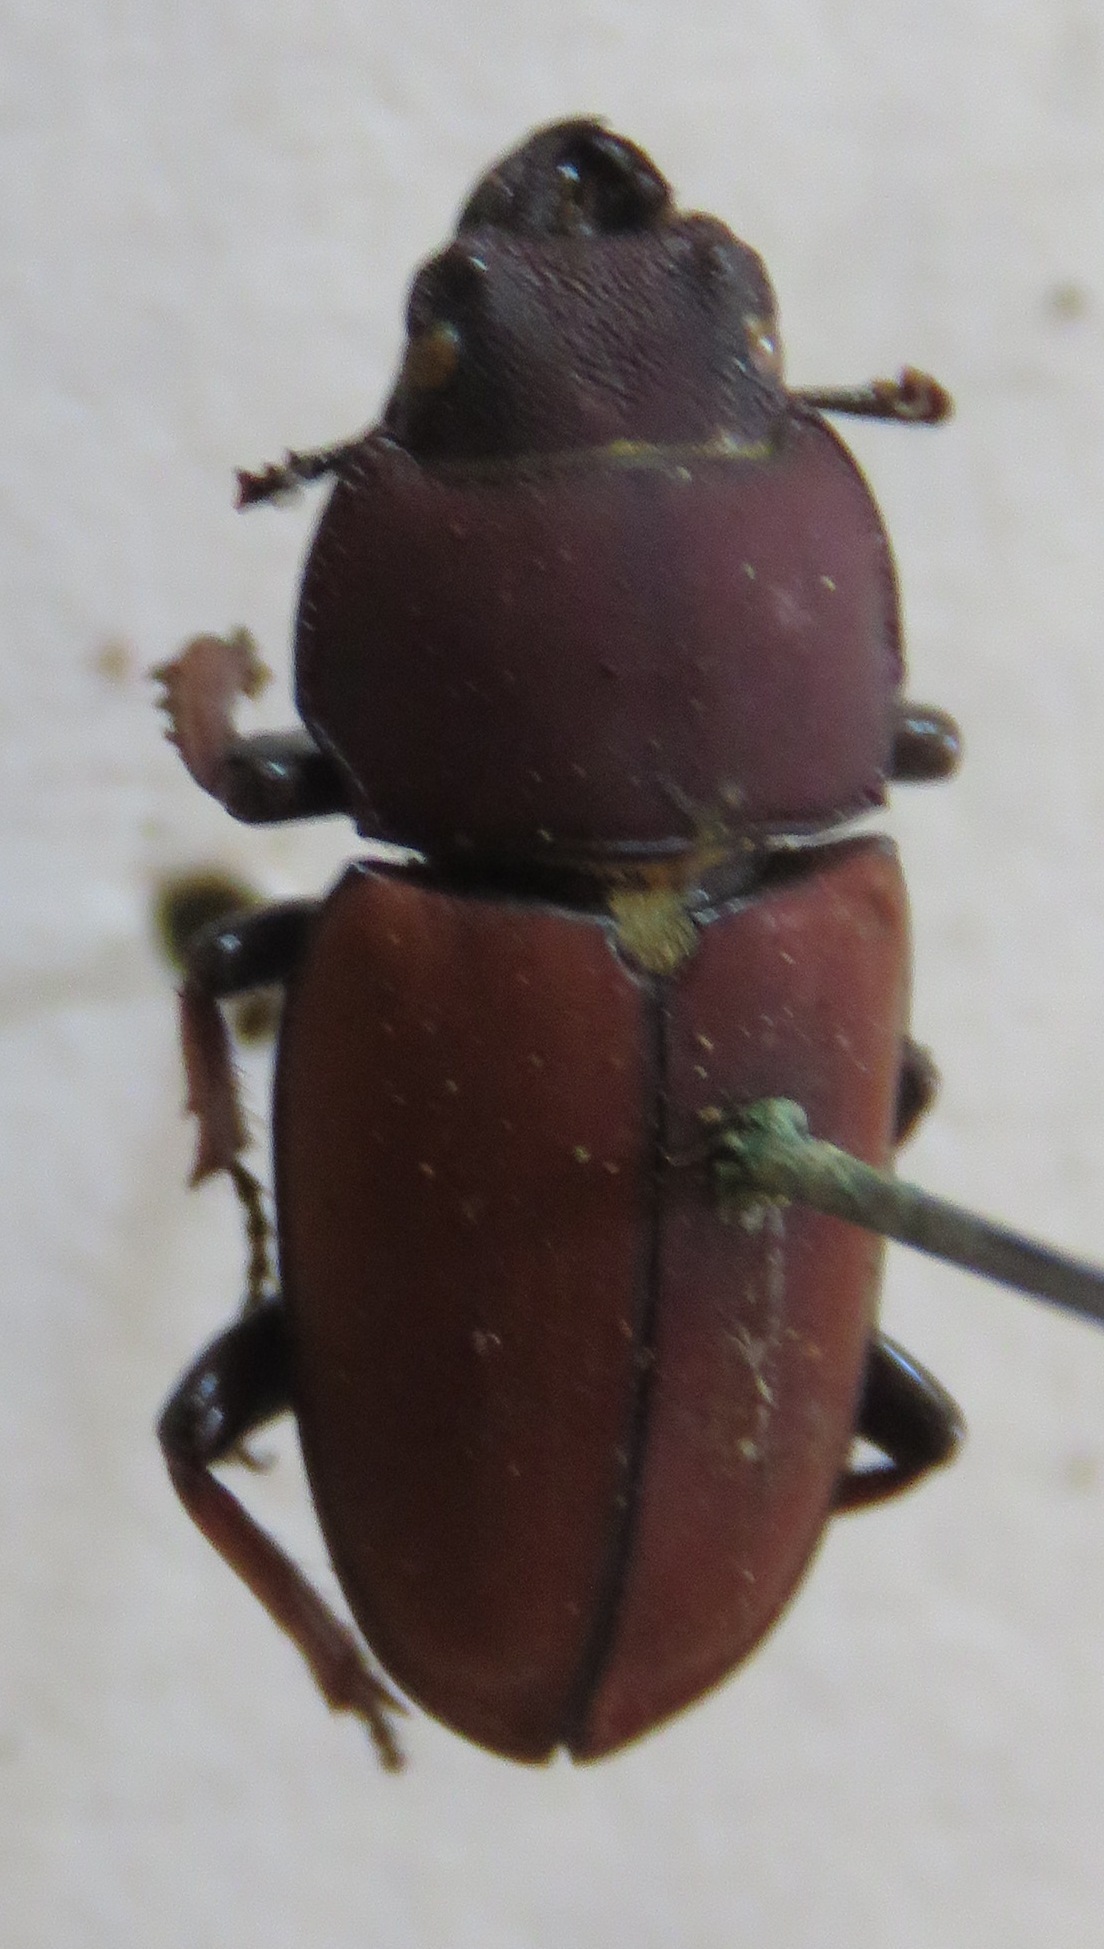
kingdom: Animalia
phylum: Arthropoda
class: Insecta
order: Coleoptera
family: Lucanidae
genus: Leptinopterus
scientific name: Leptinopterus tibialis
